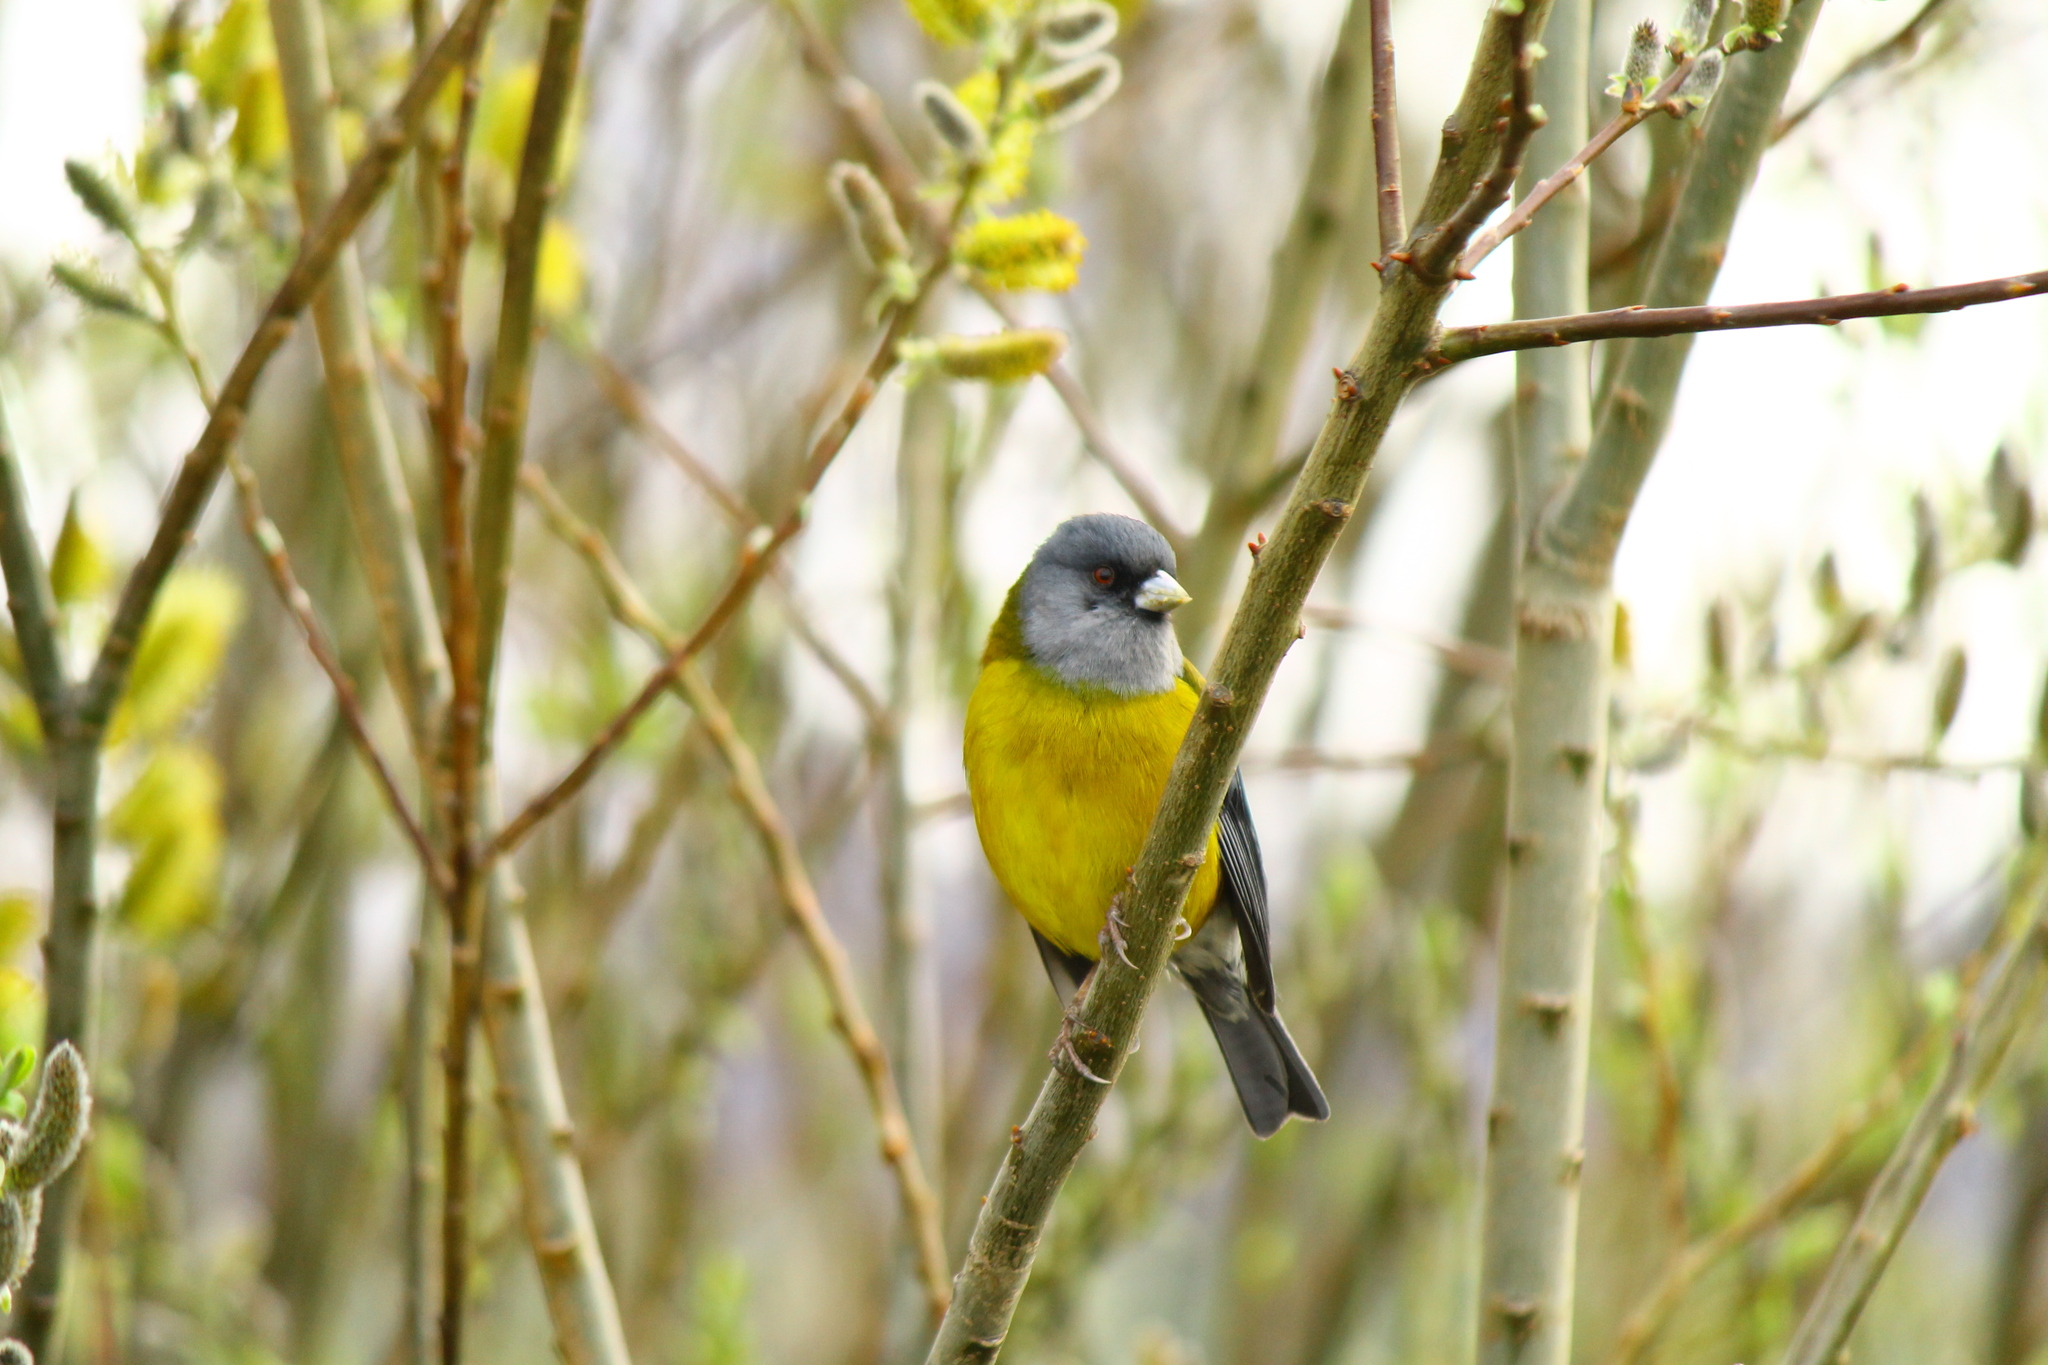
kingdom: Animalia
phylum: Chordata
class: Aves
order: Passeriformes
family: Thraupidae
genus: Phrygilus
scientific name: Phrygilus patagonicus
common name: Patagonian sierra finch
